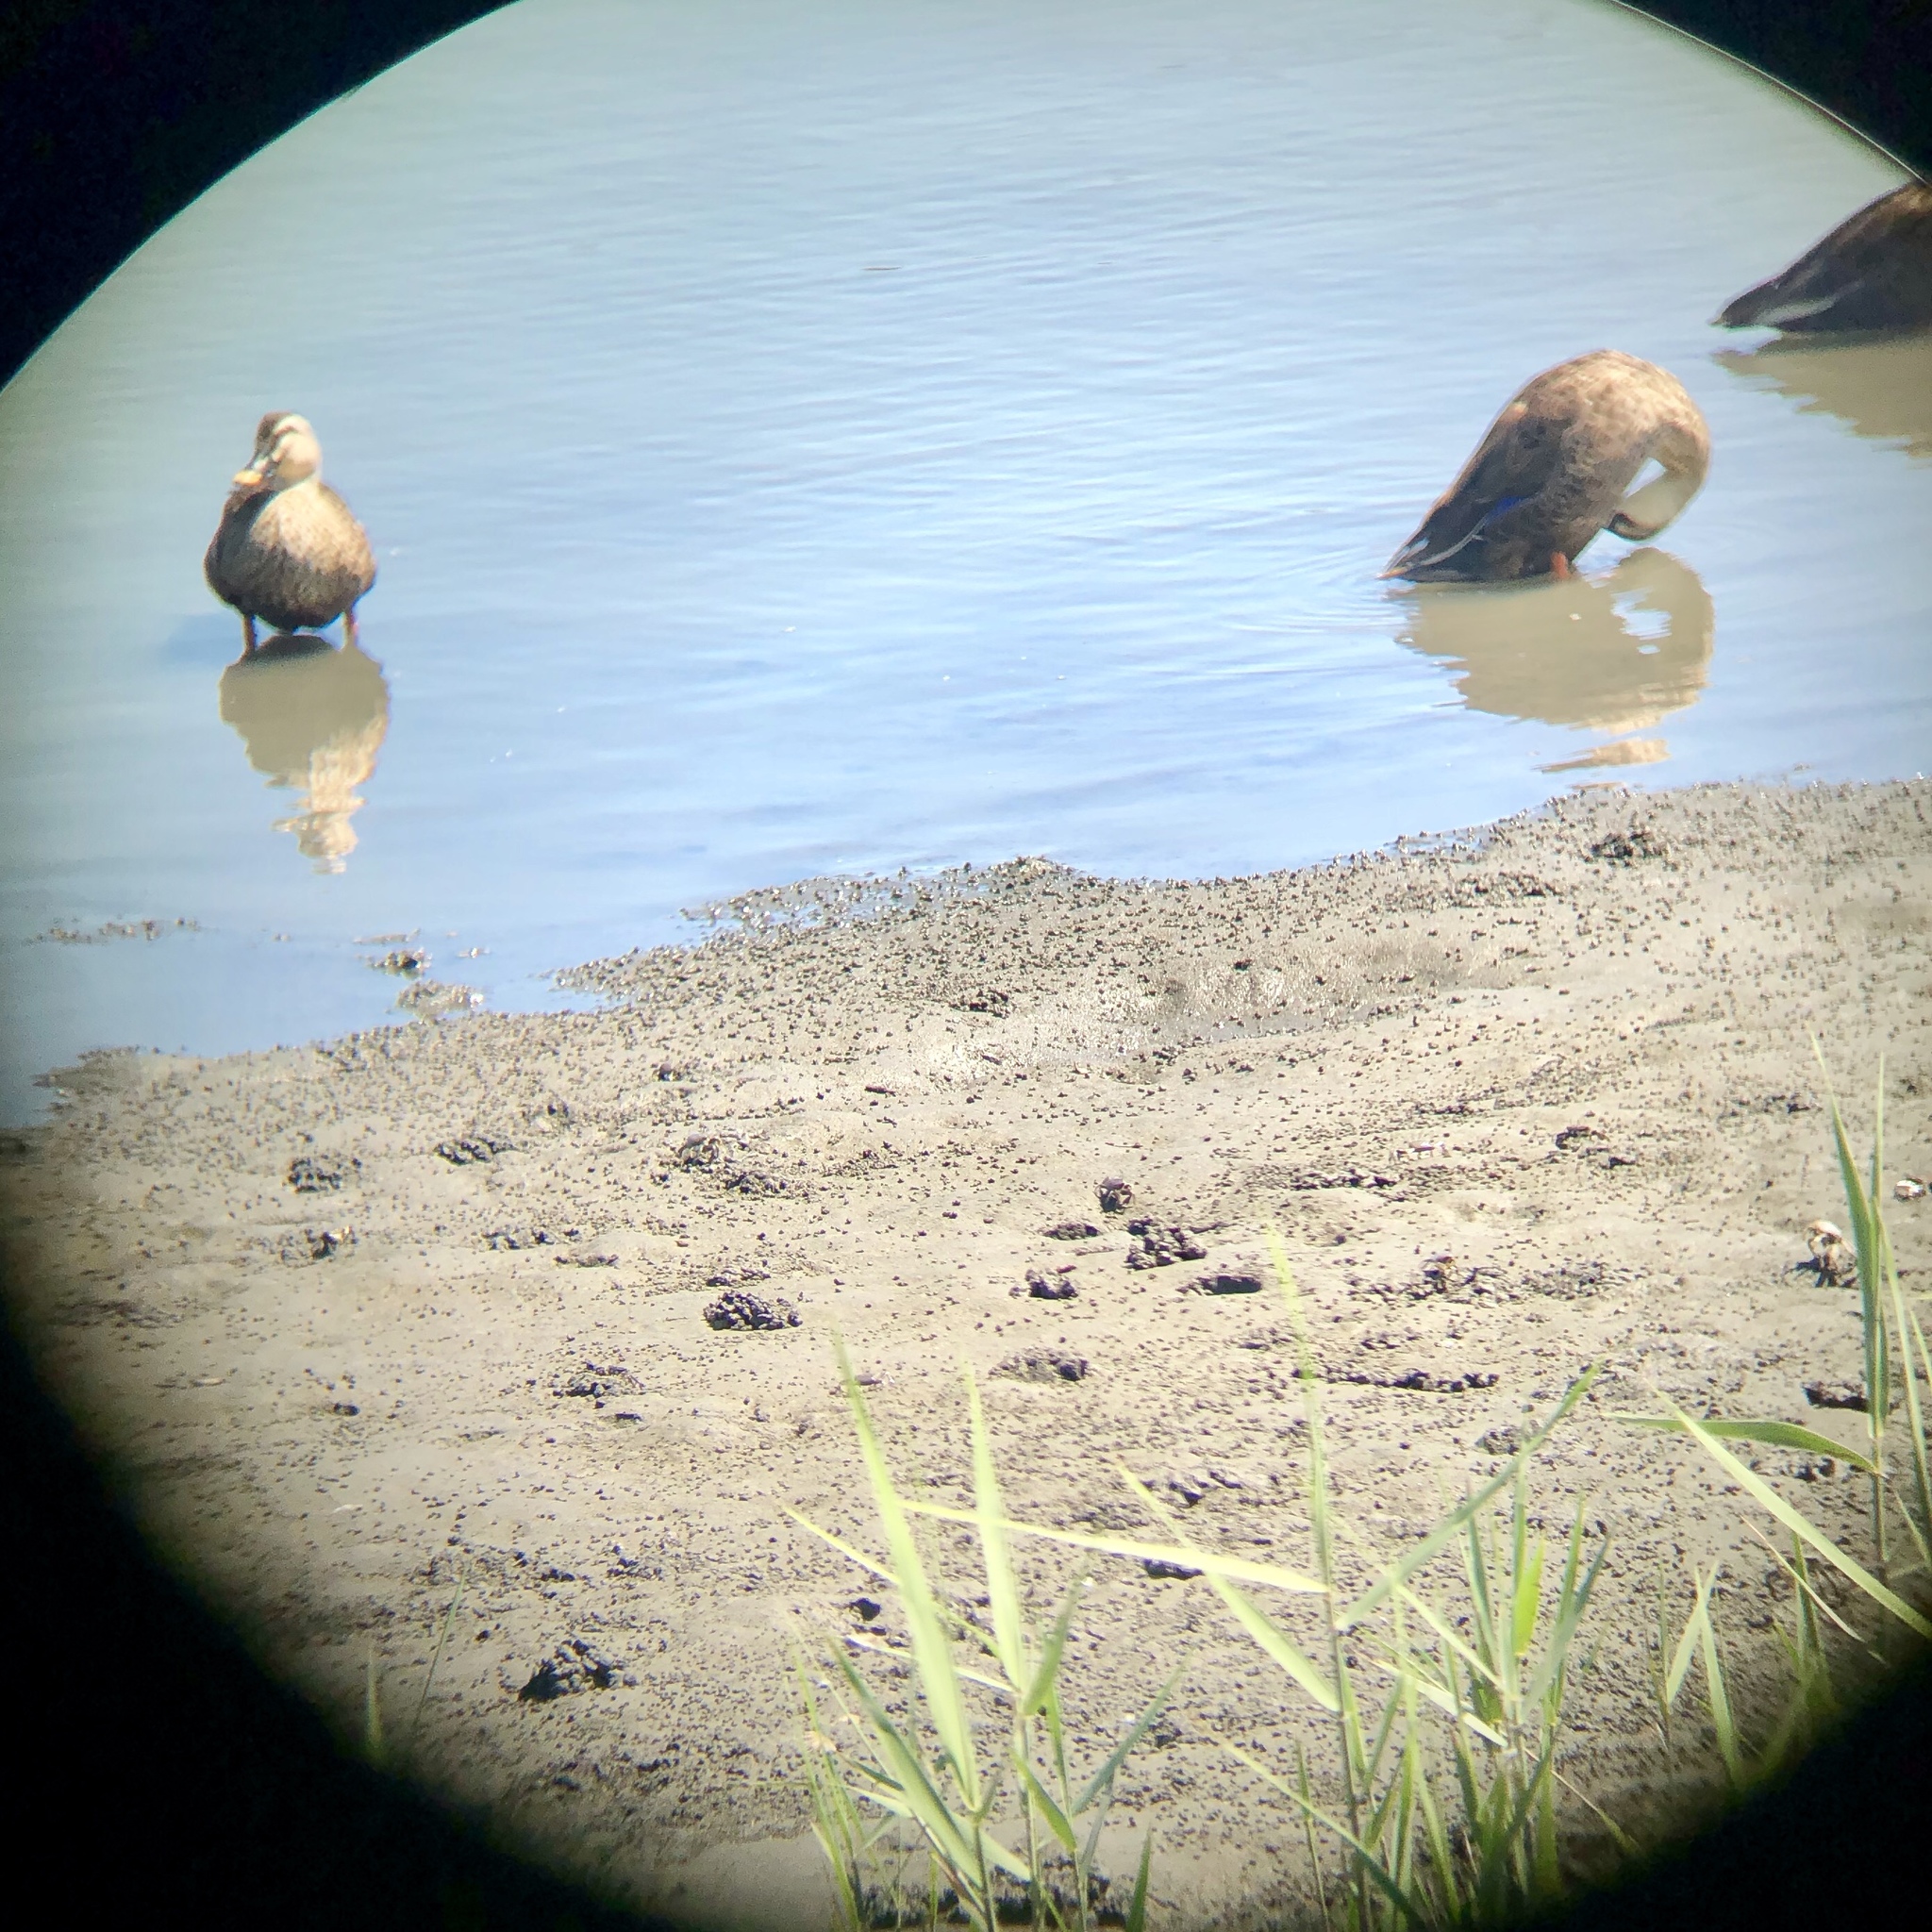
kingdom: Animalia
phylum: Chordata
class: Aves
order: Anseriformes
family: Anatidae
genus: Anas
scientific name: Anas zonorhyncha
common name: Eastern spot-billed duck
